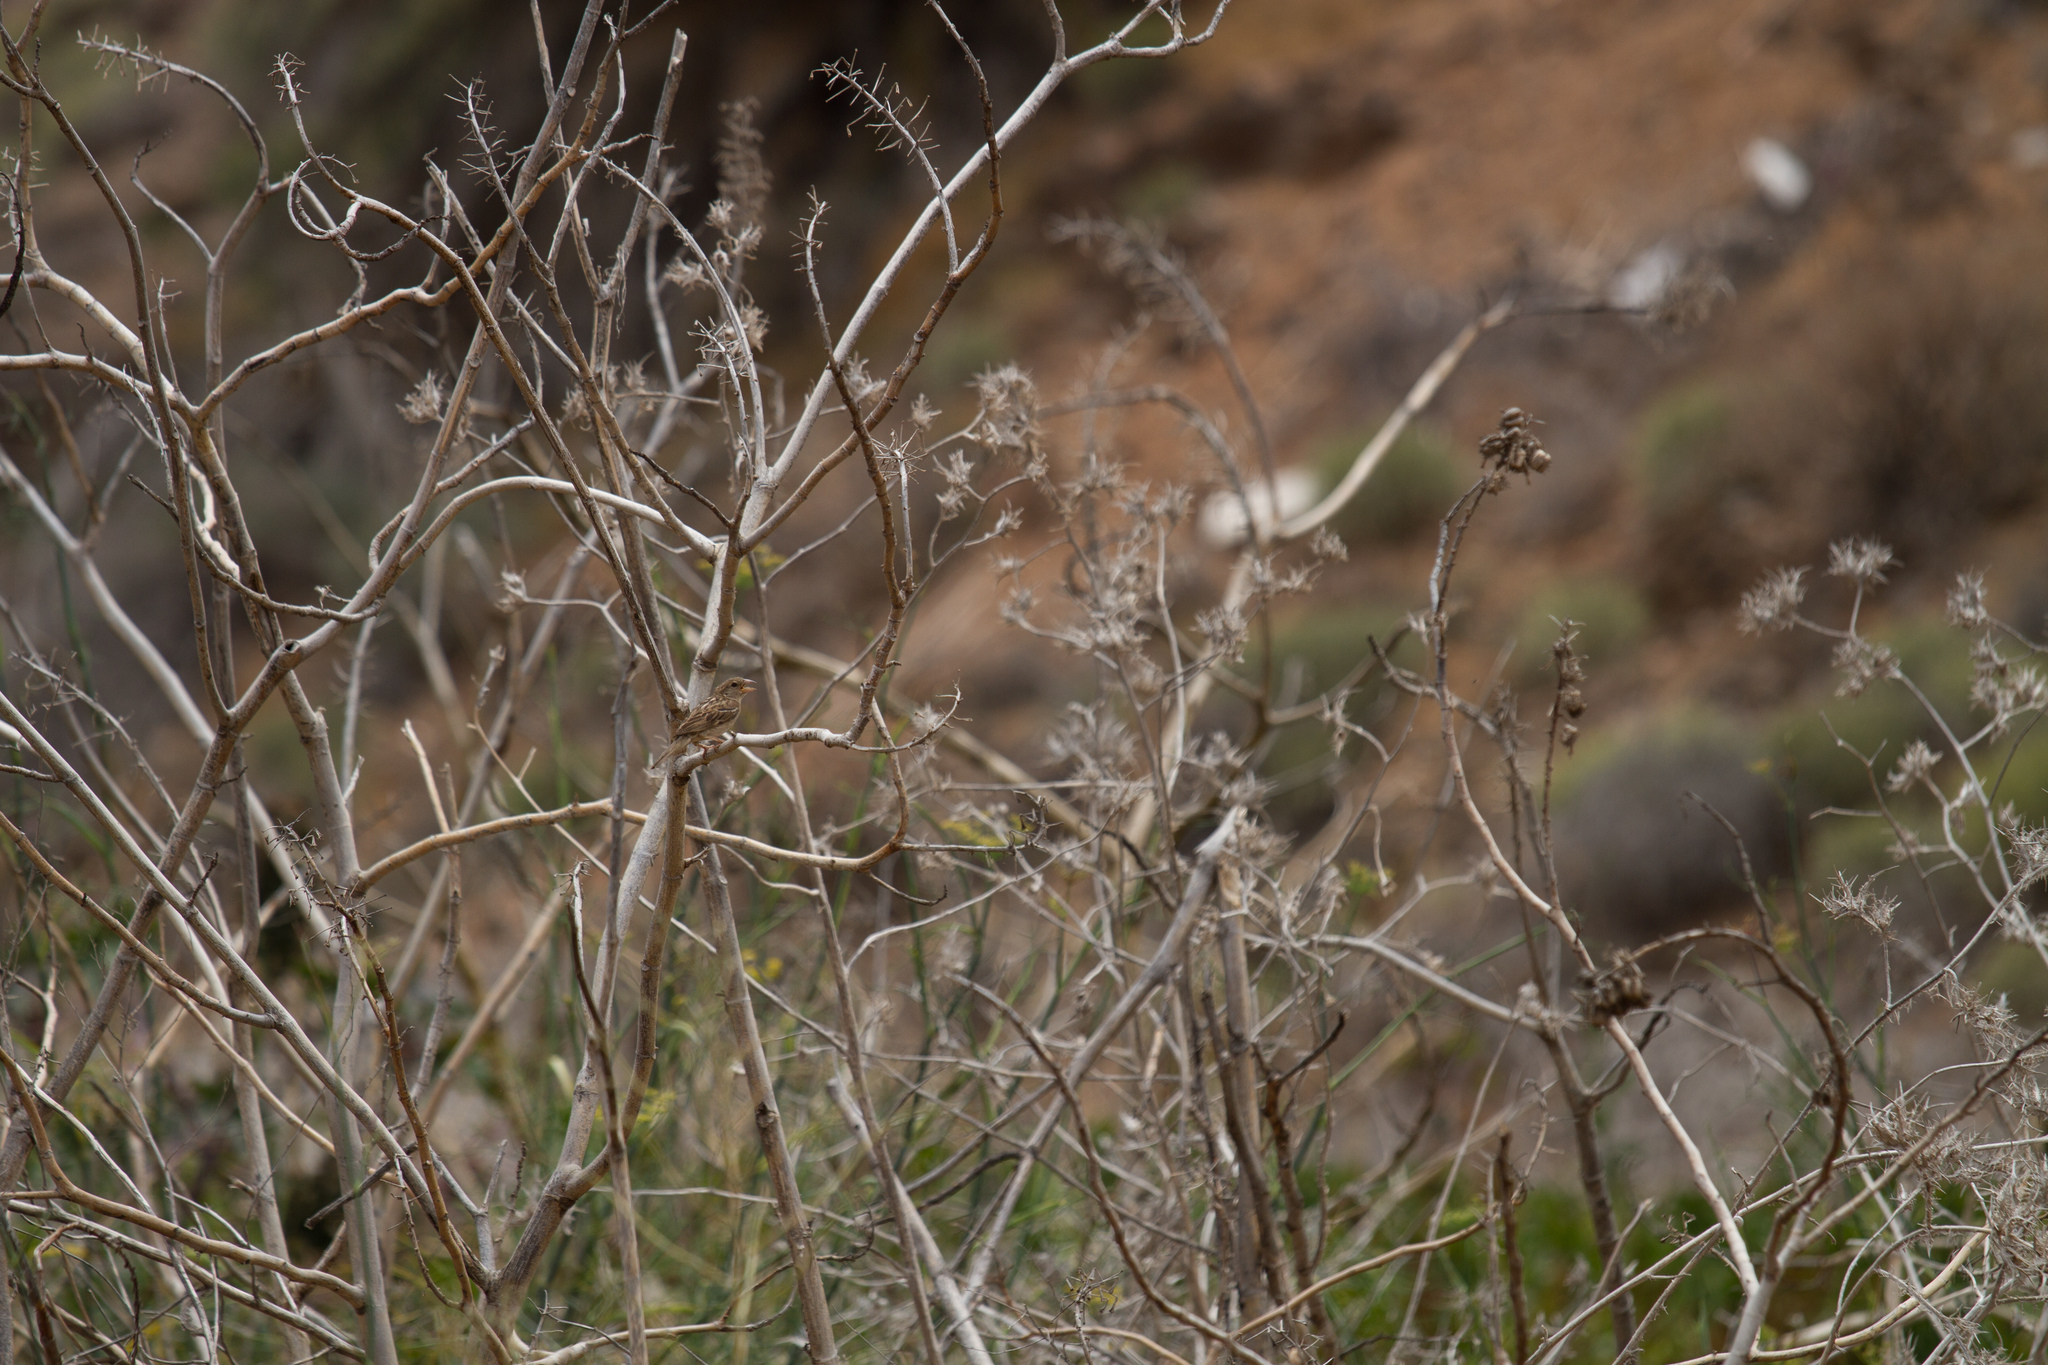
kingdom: Animalia
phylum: Chordata
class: Aves
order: Passeriformes
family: Passeridae
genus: Passer
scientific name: Passer hispaniolensis
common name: Spanish sparrow
